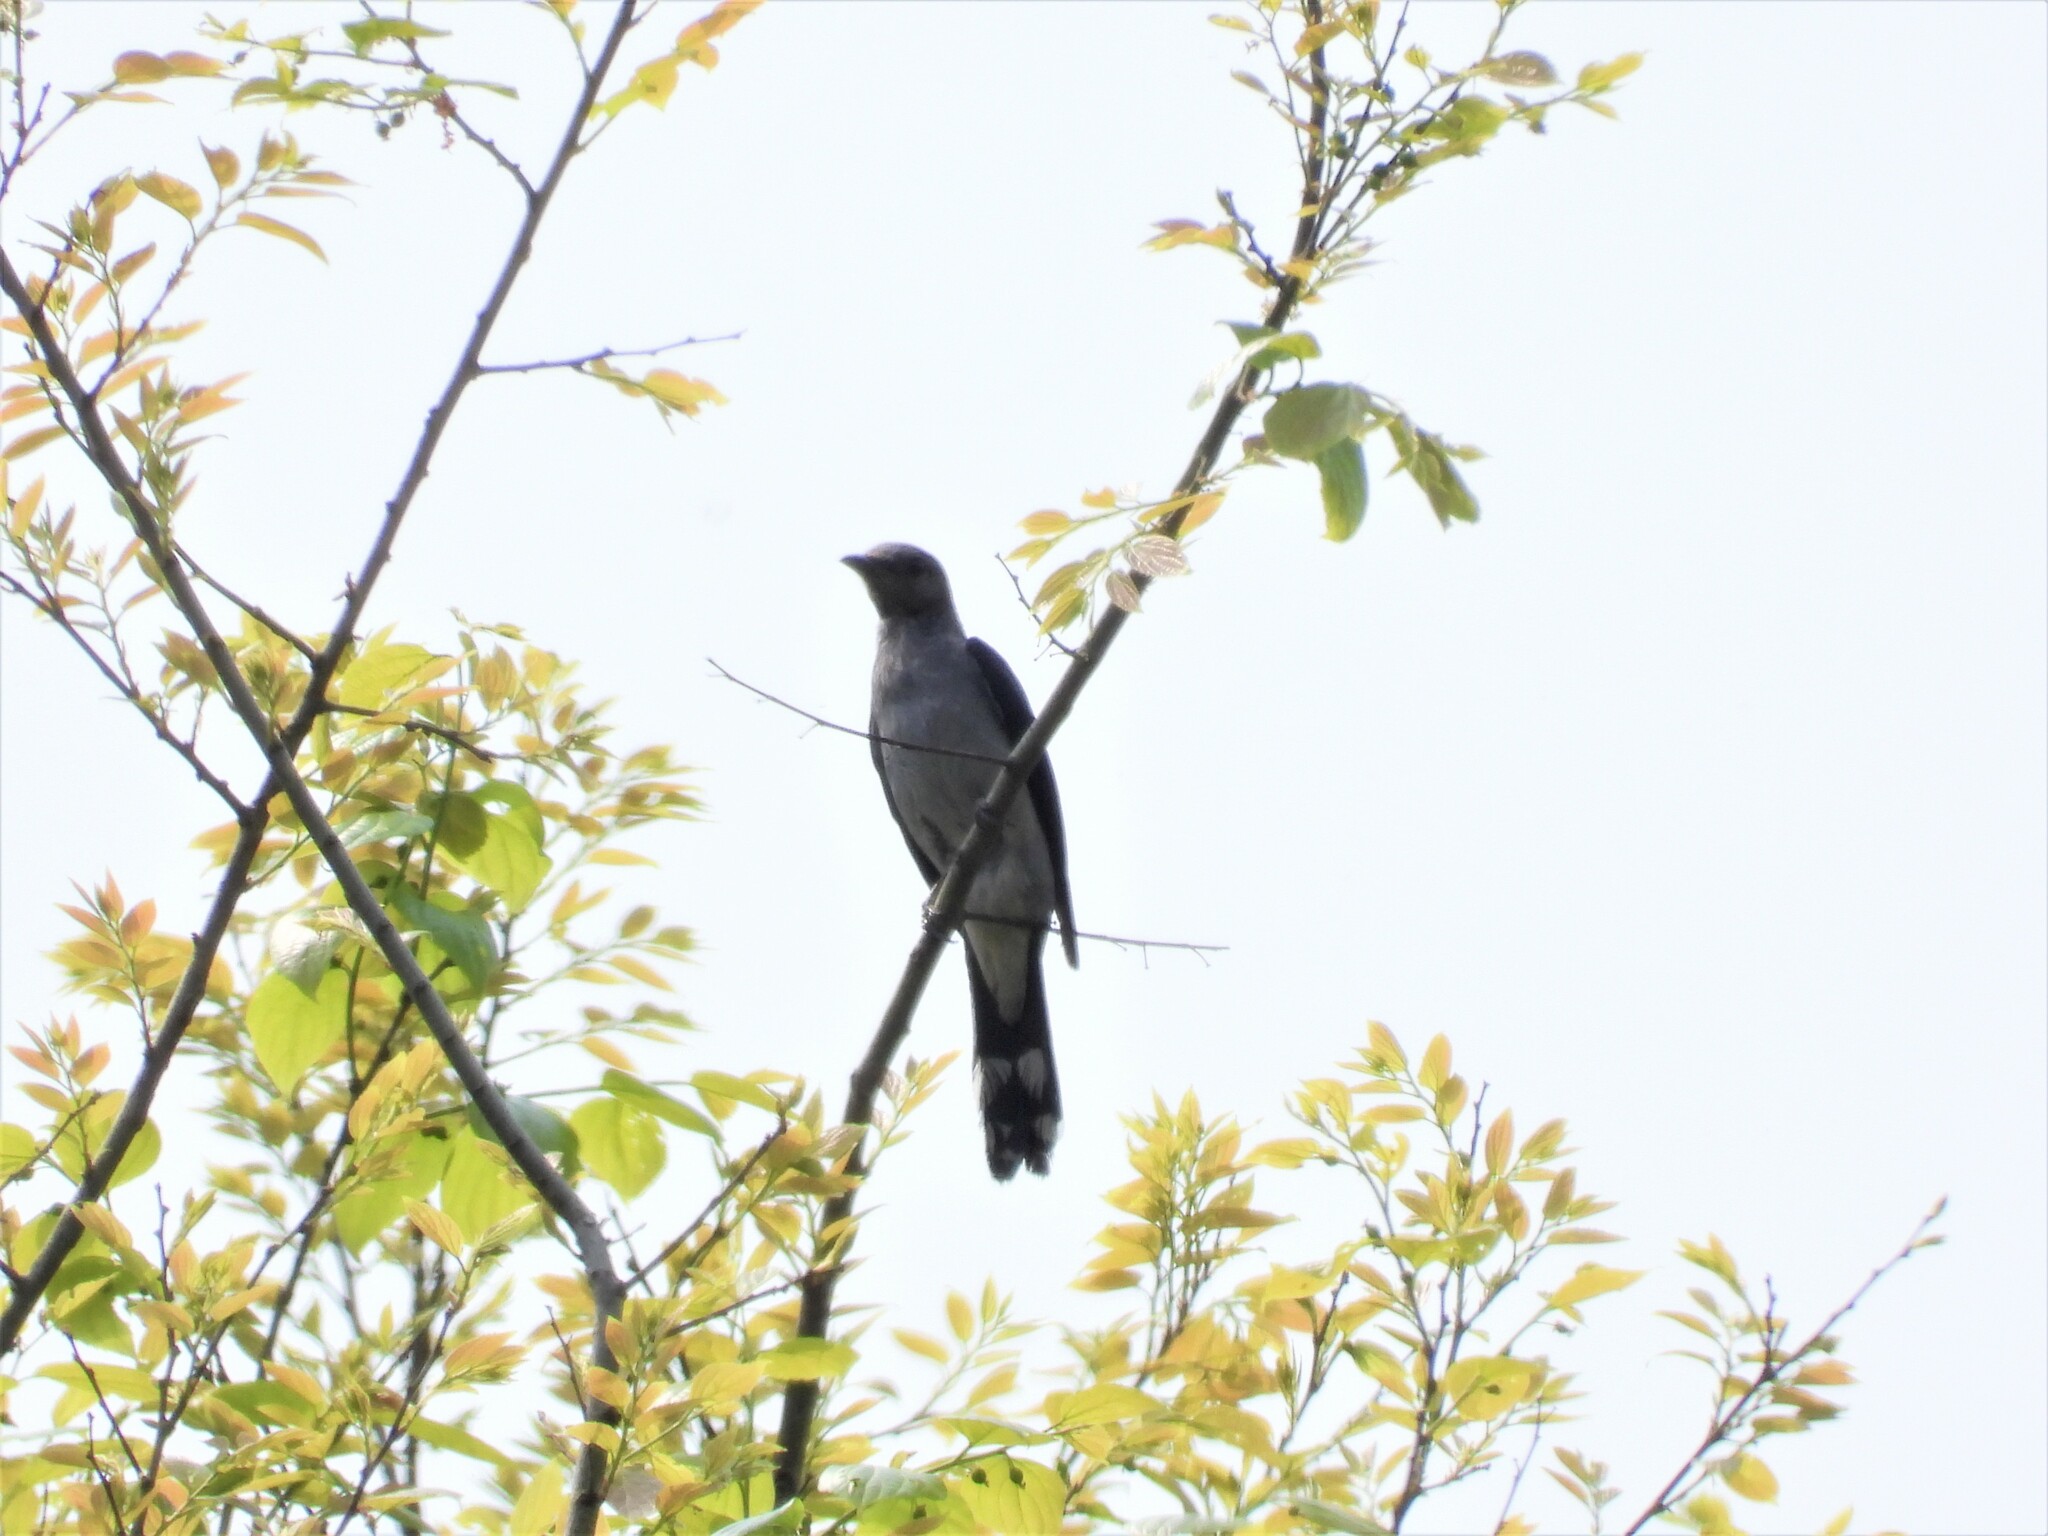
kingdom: Animalia
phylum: Chordata
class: Aves
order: Passeriformes
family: Campephagidae
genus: Coracina
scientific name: Coracina melaschistos
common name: Black-winged cuckooshrike
